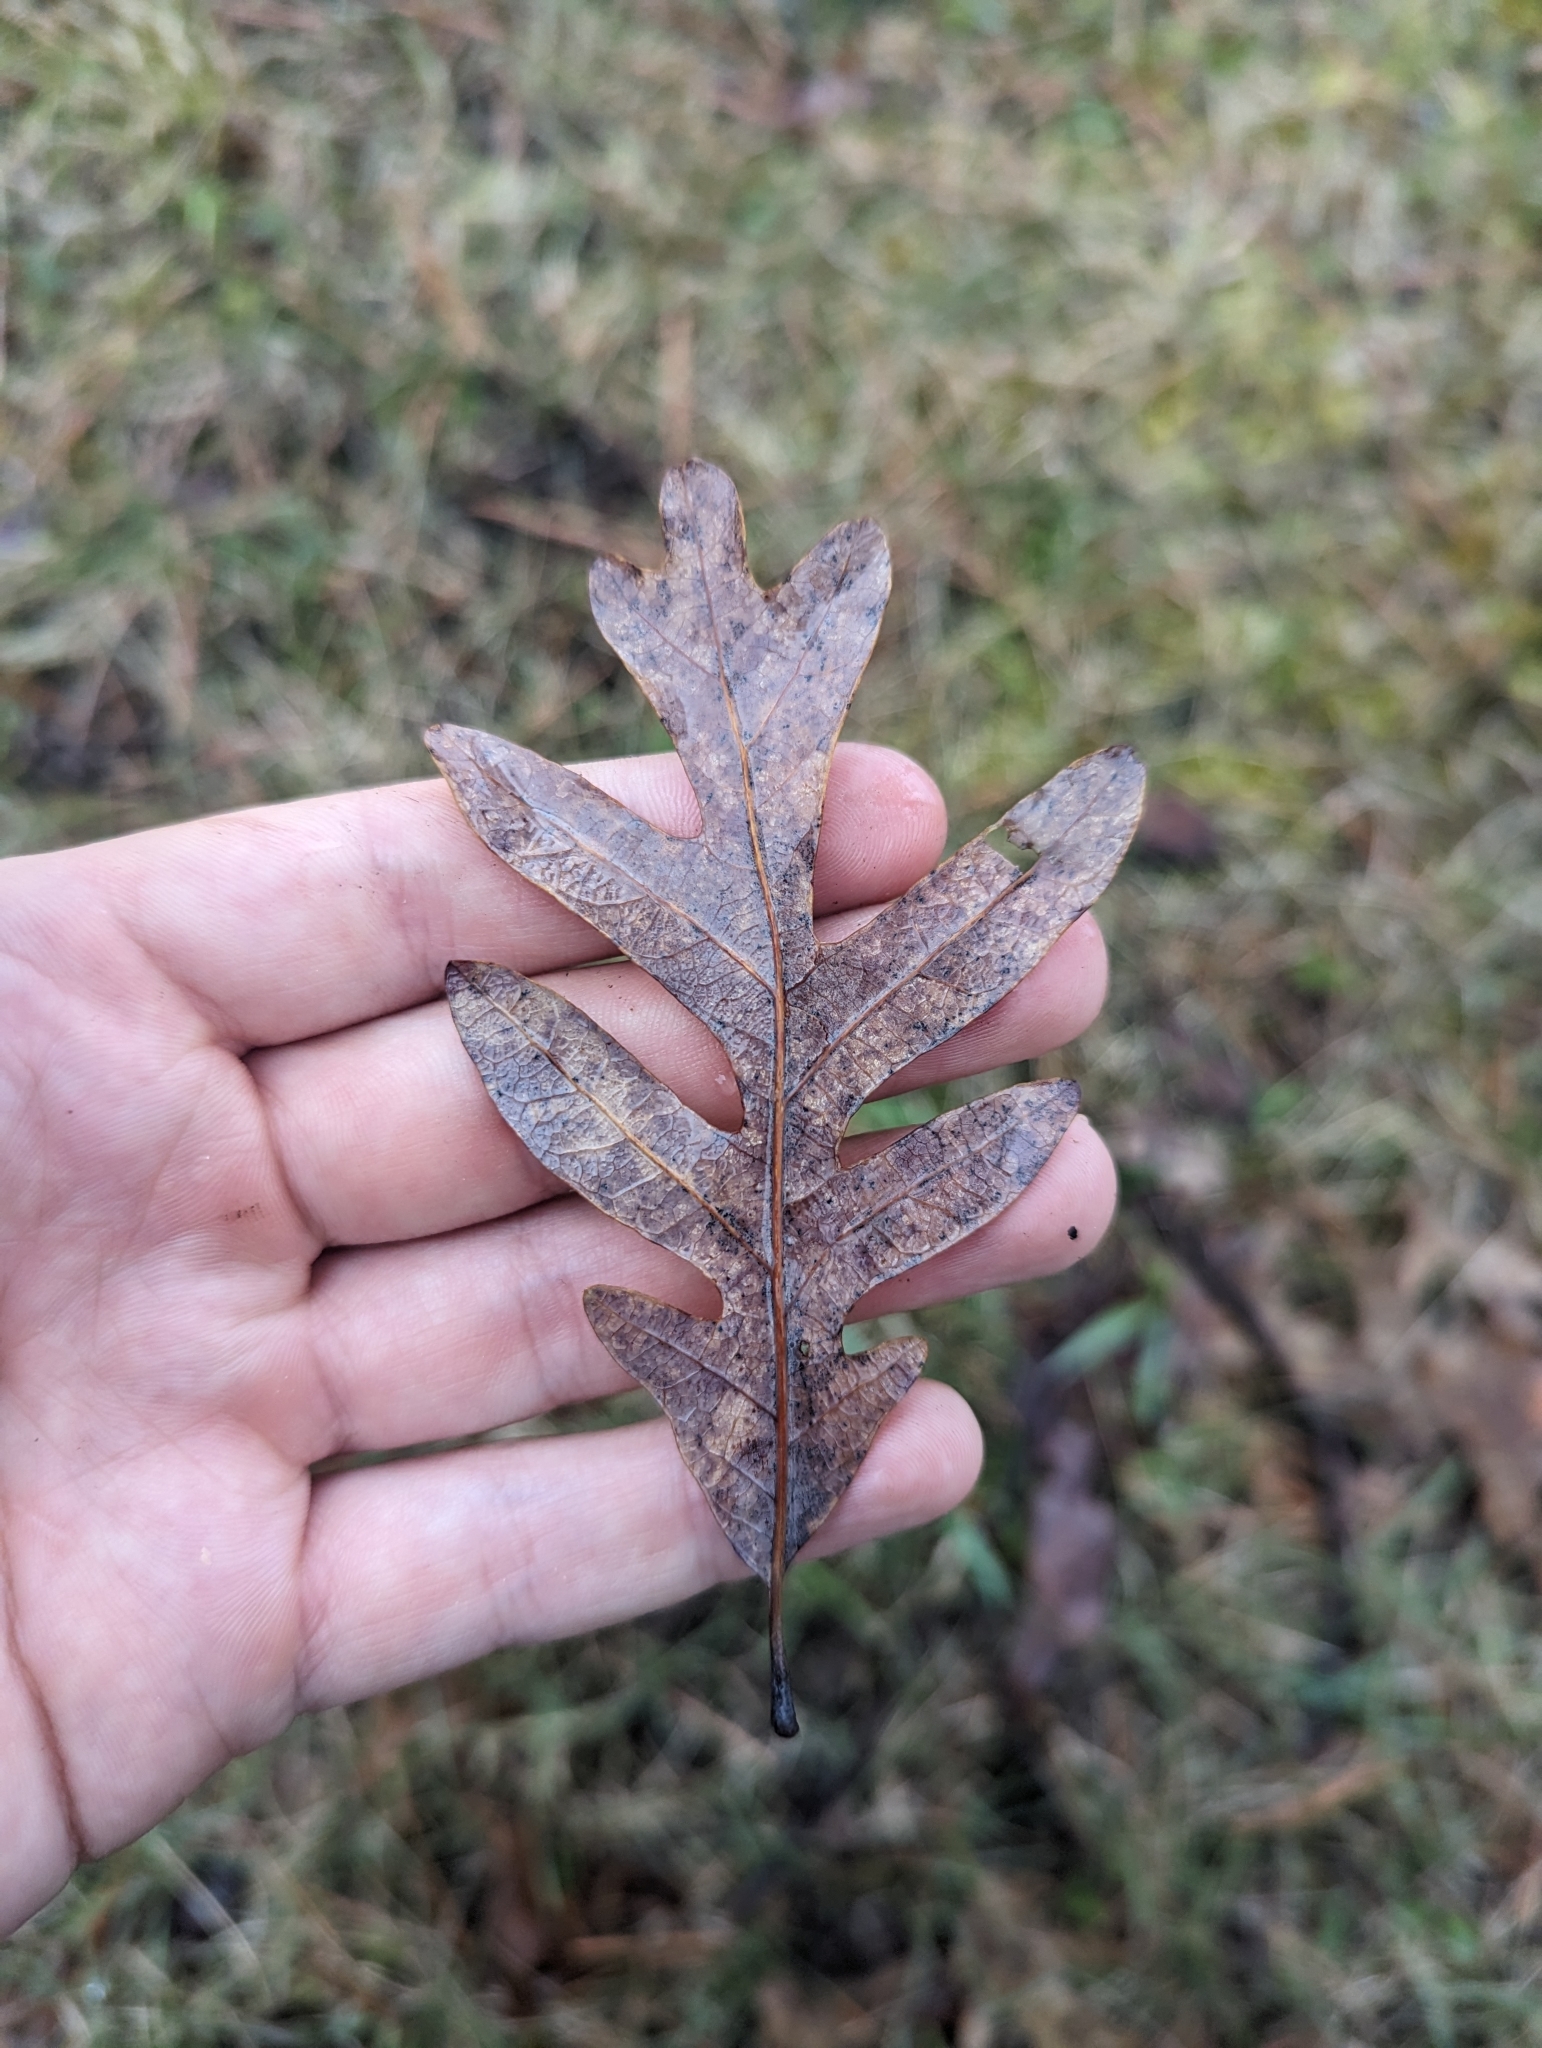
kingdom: Plantae
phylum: Tracheophyta
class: Magnoliopsida
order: Fagales
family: Fagaceae
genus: Quercus
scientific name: Quercus alba
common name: White oak
